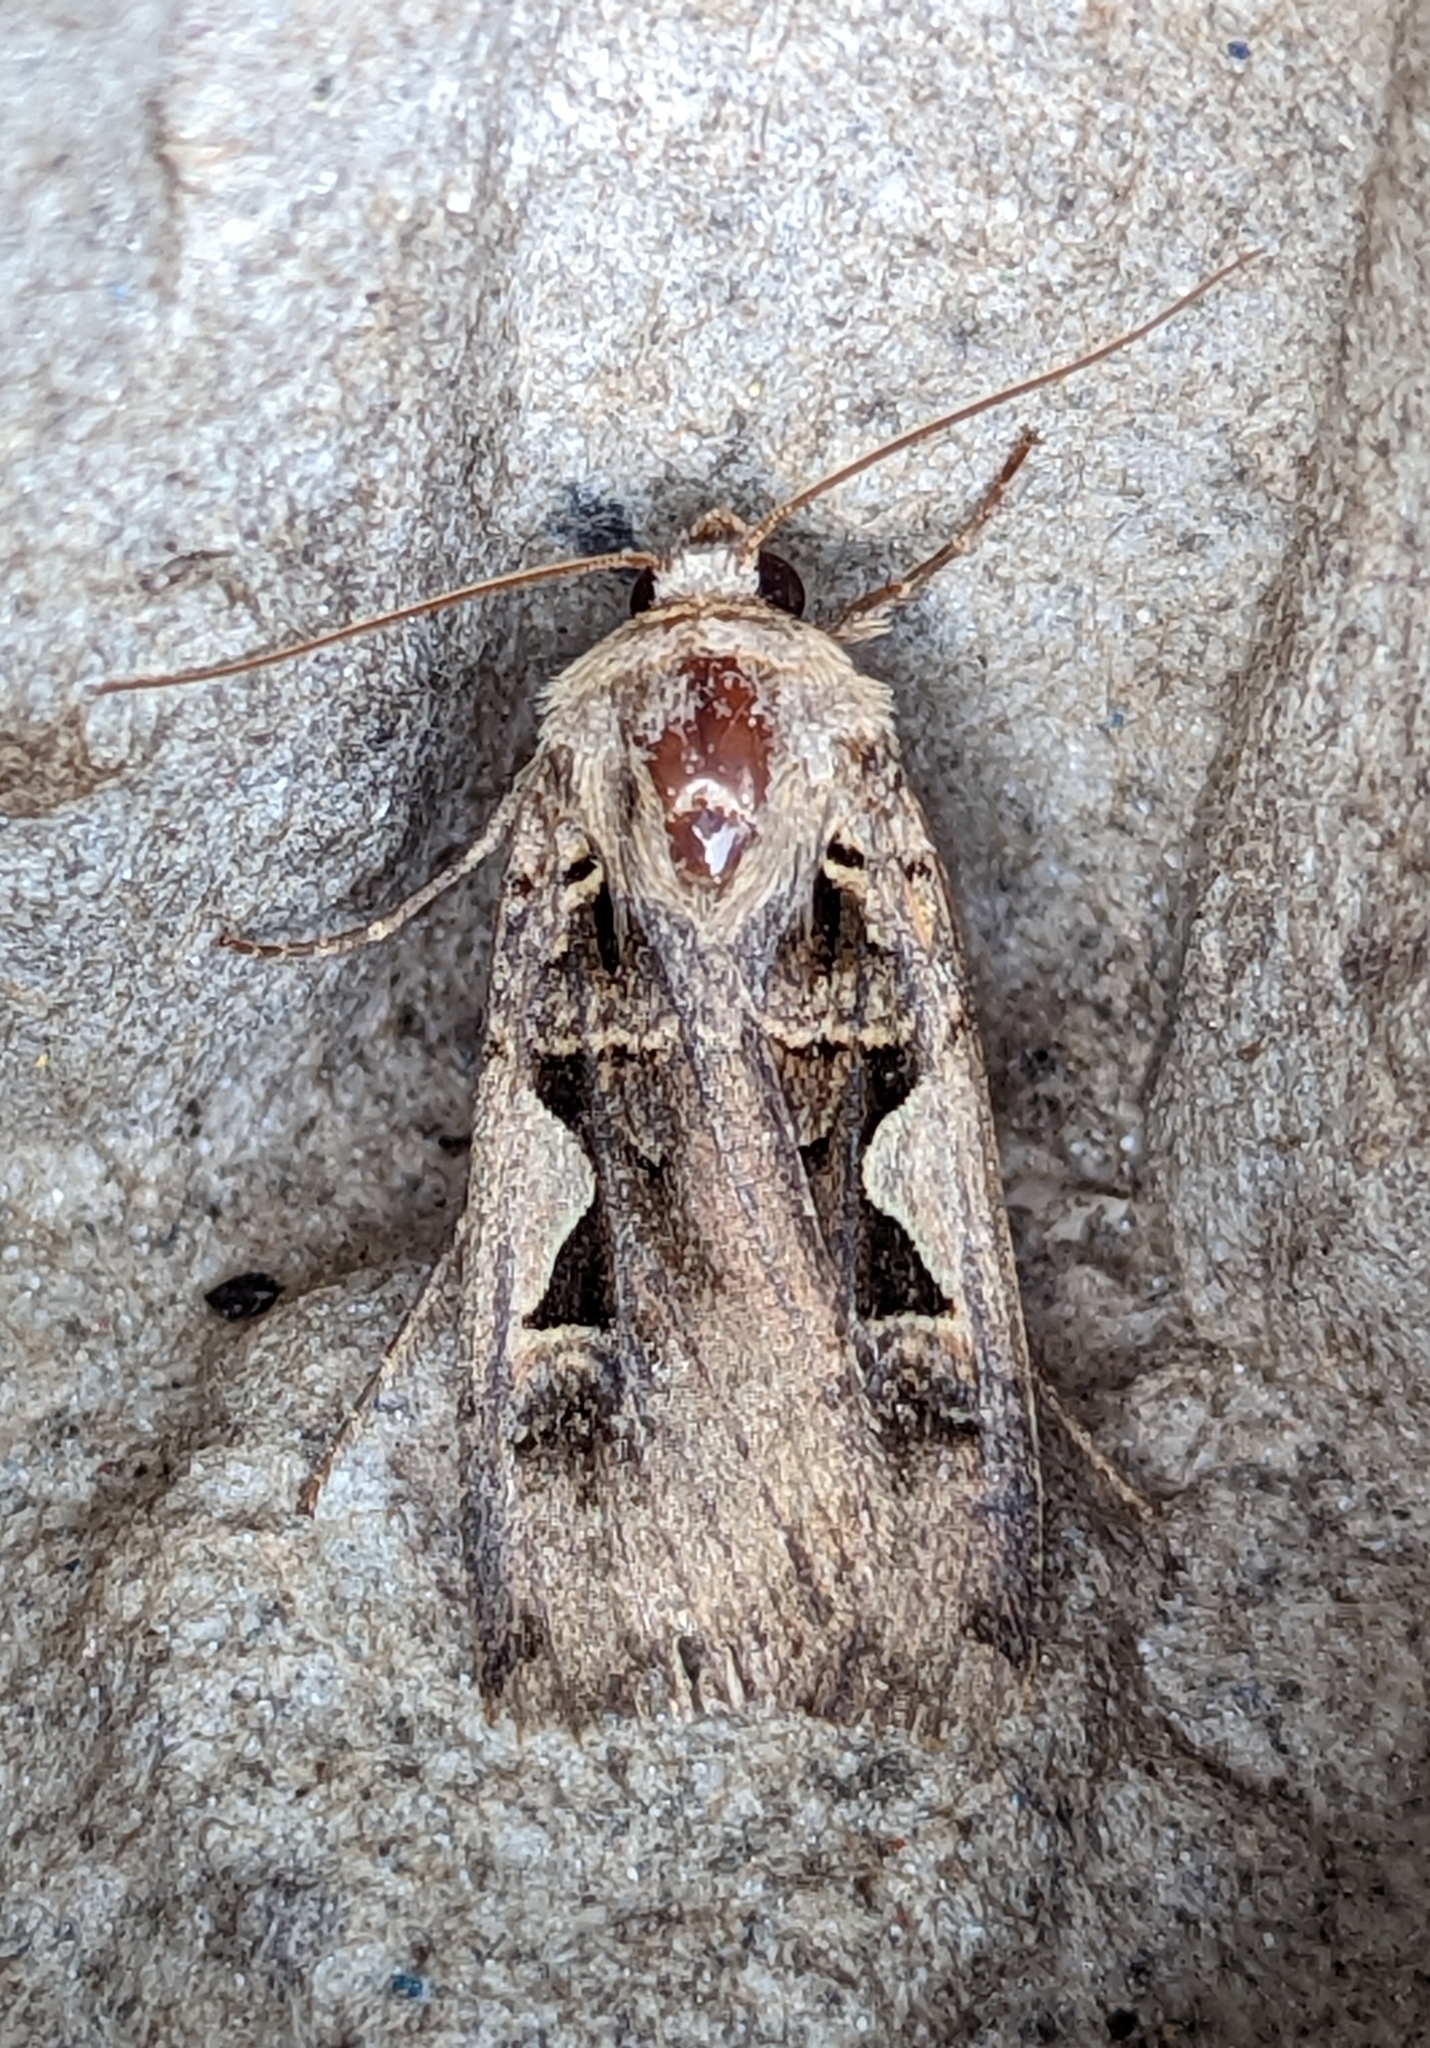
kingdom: Animalia
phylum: Arthropoda
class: Insecta
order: Lepidoptera
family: Noctuidae
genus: Xestia
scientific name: Xestia c-nigrum
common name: Setaceous hebrew character
